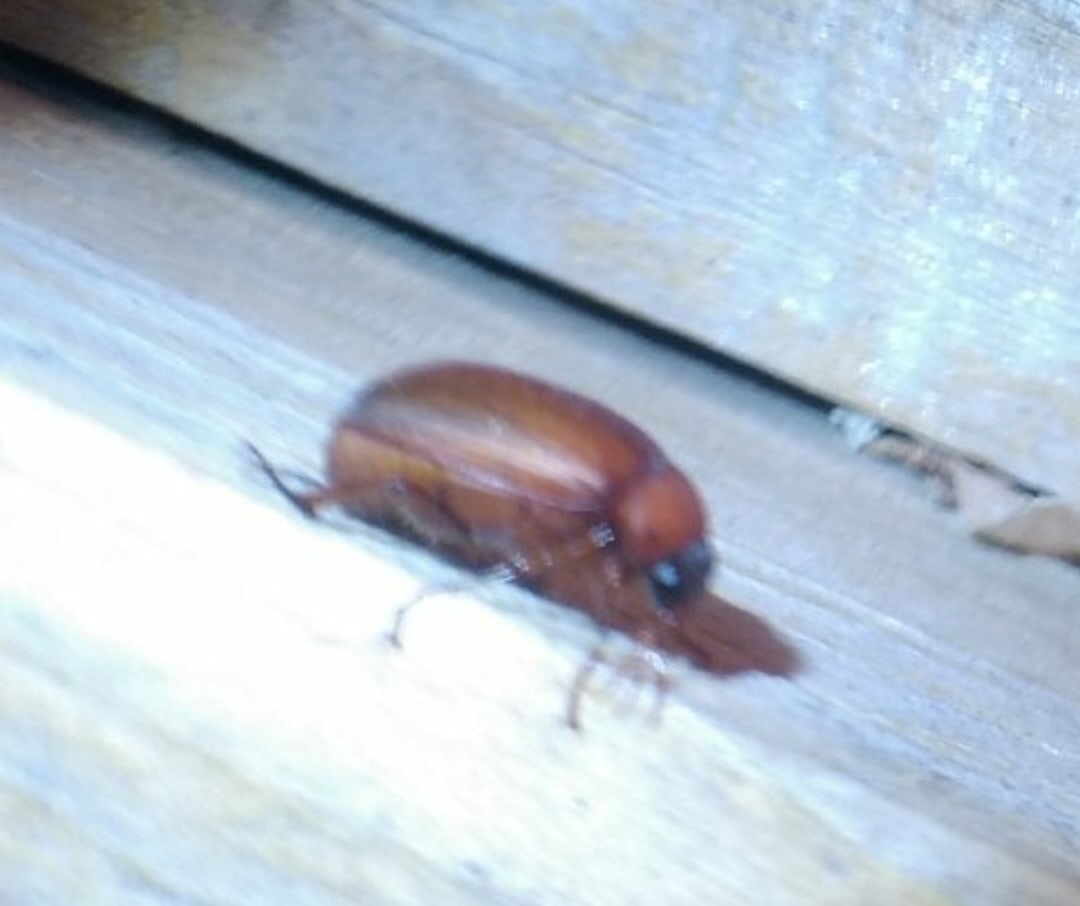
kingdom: Animalia
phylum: Arthropoda
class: Insecta
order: Coleoptera
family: Scarabaeidae
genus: Serica
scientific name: Serica brunnea
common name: Brown chafer
